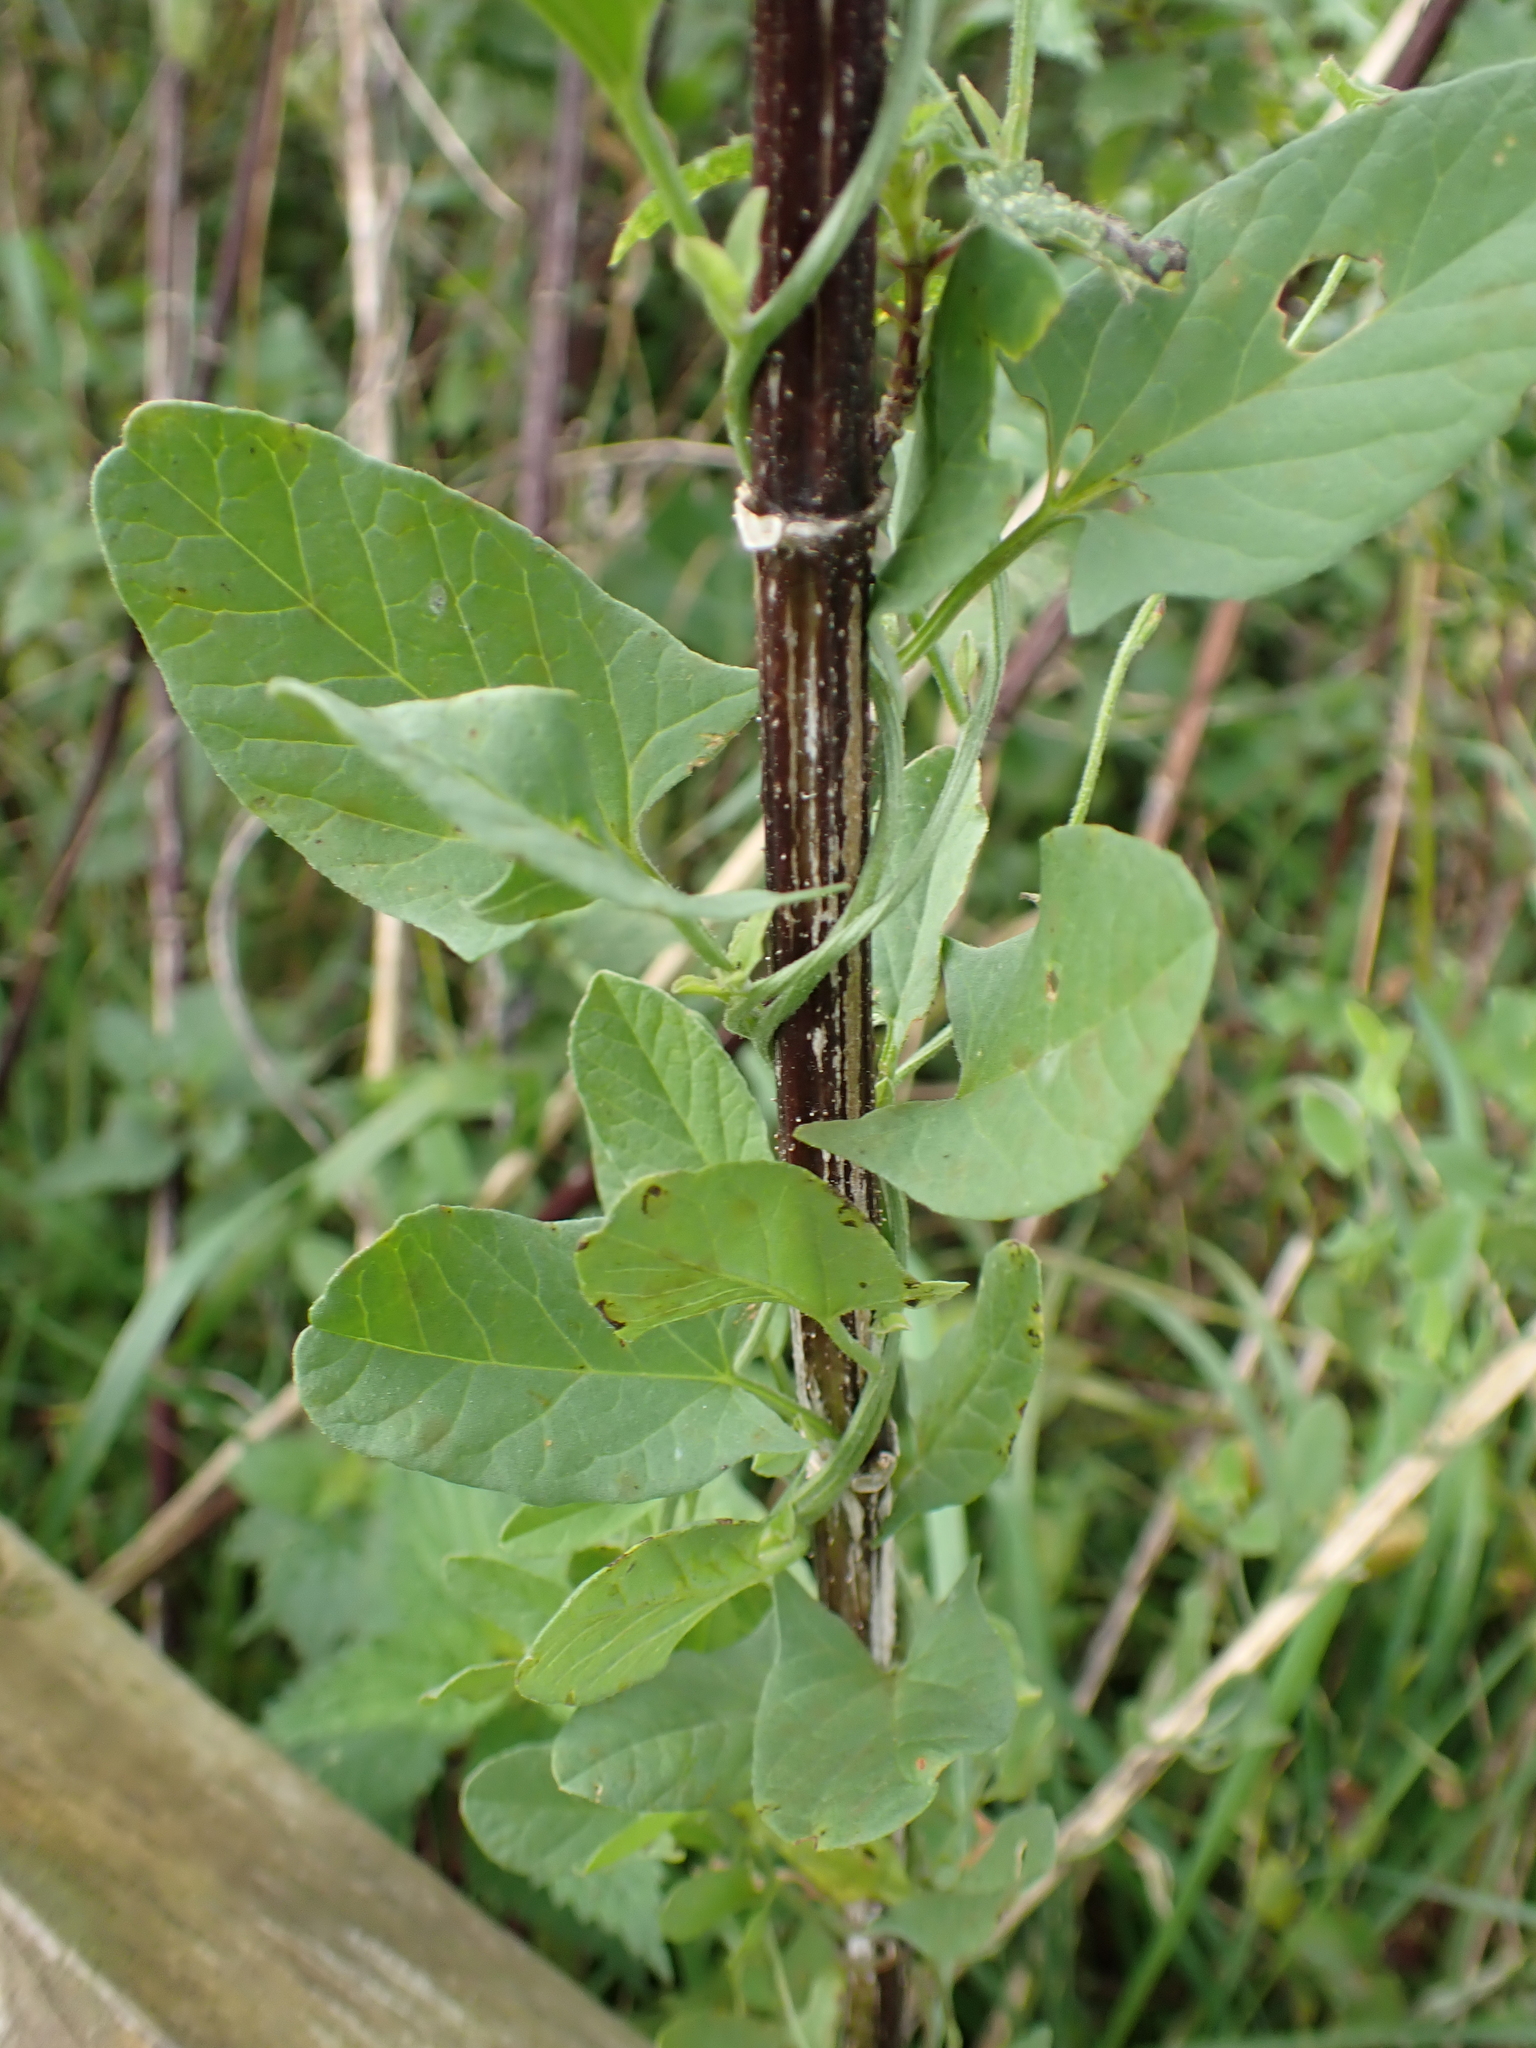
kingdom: Plantae
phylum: Tracheophyta
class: Magnoliopsida
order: Solanales
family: Convolvulaceae
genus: Convolvulus
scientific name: Convolvulus arvensis
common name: Field bindweed
